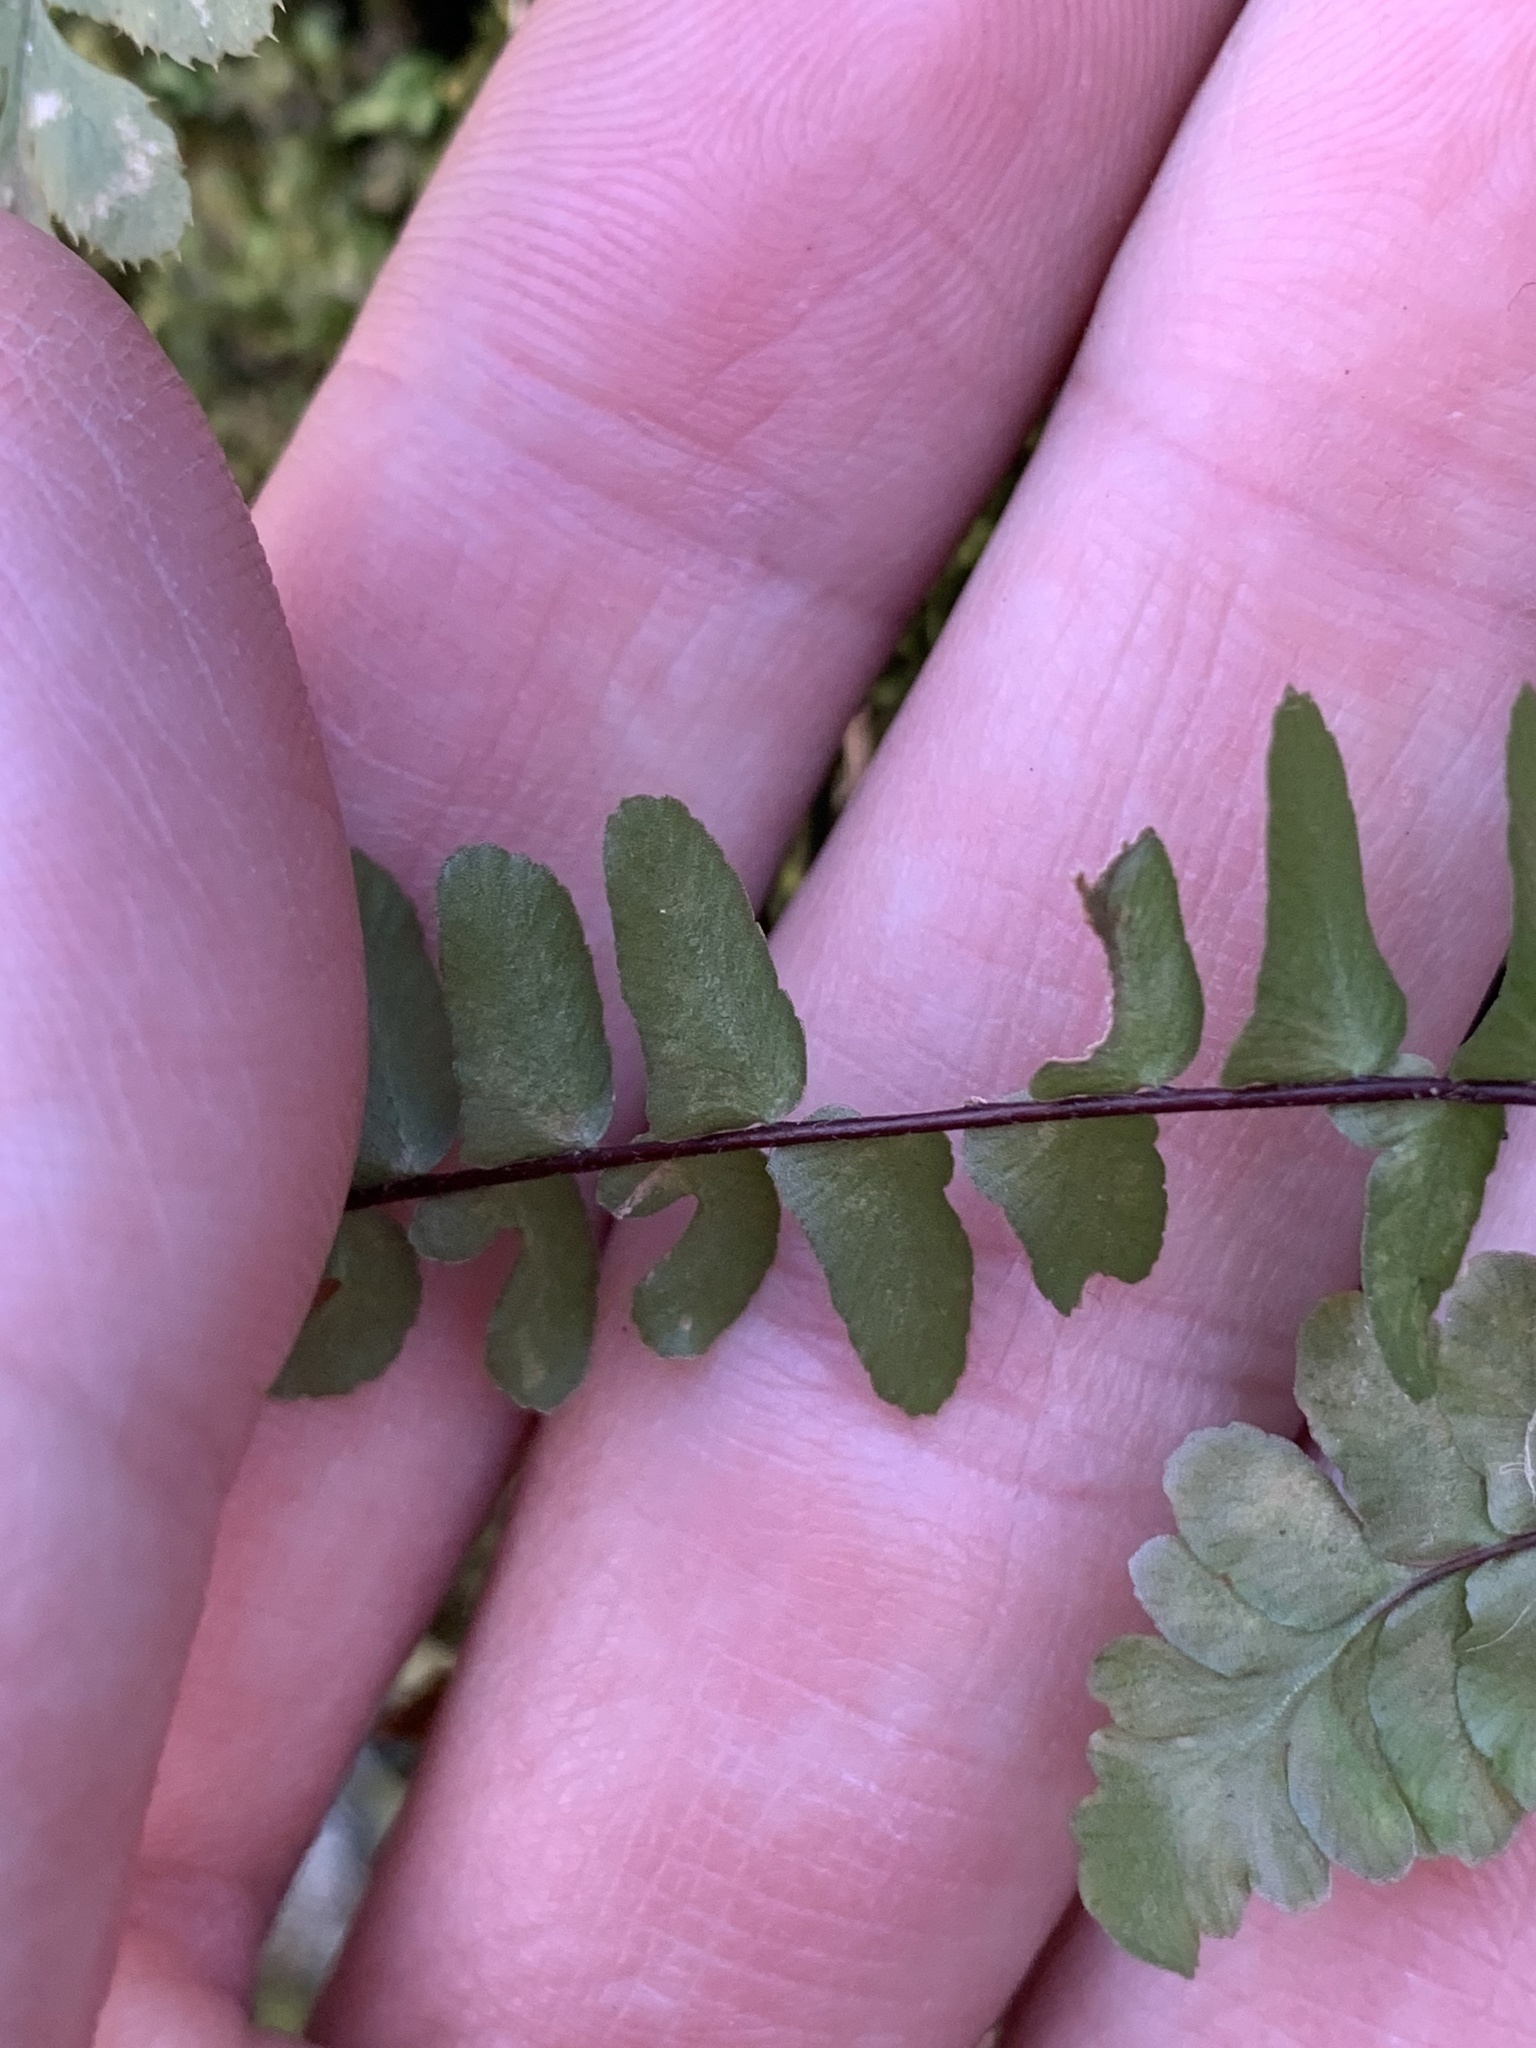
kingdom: Plantae
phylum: Tracheophyta
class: Polypodiopsida
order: Polypodiales
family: Aspleniaceae
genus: Asplenium
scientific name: Asplenium platyneuron
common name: Ebony spleenwort
